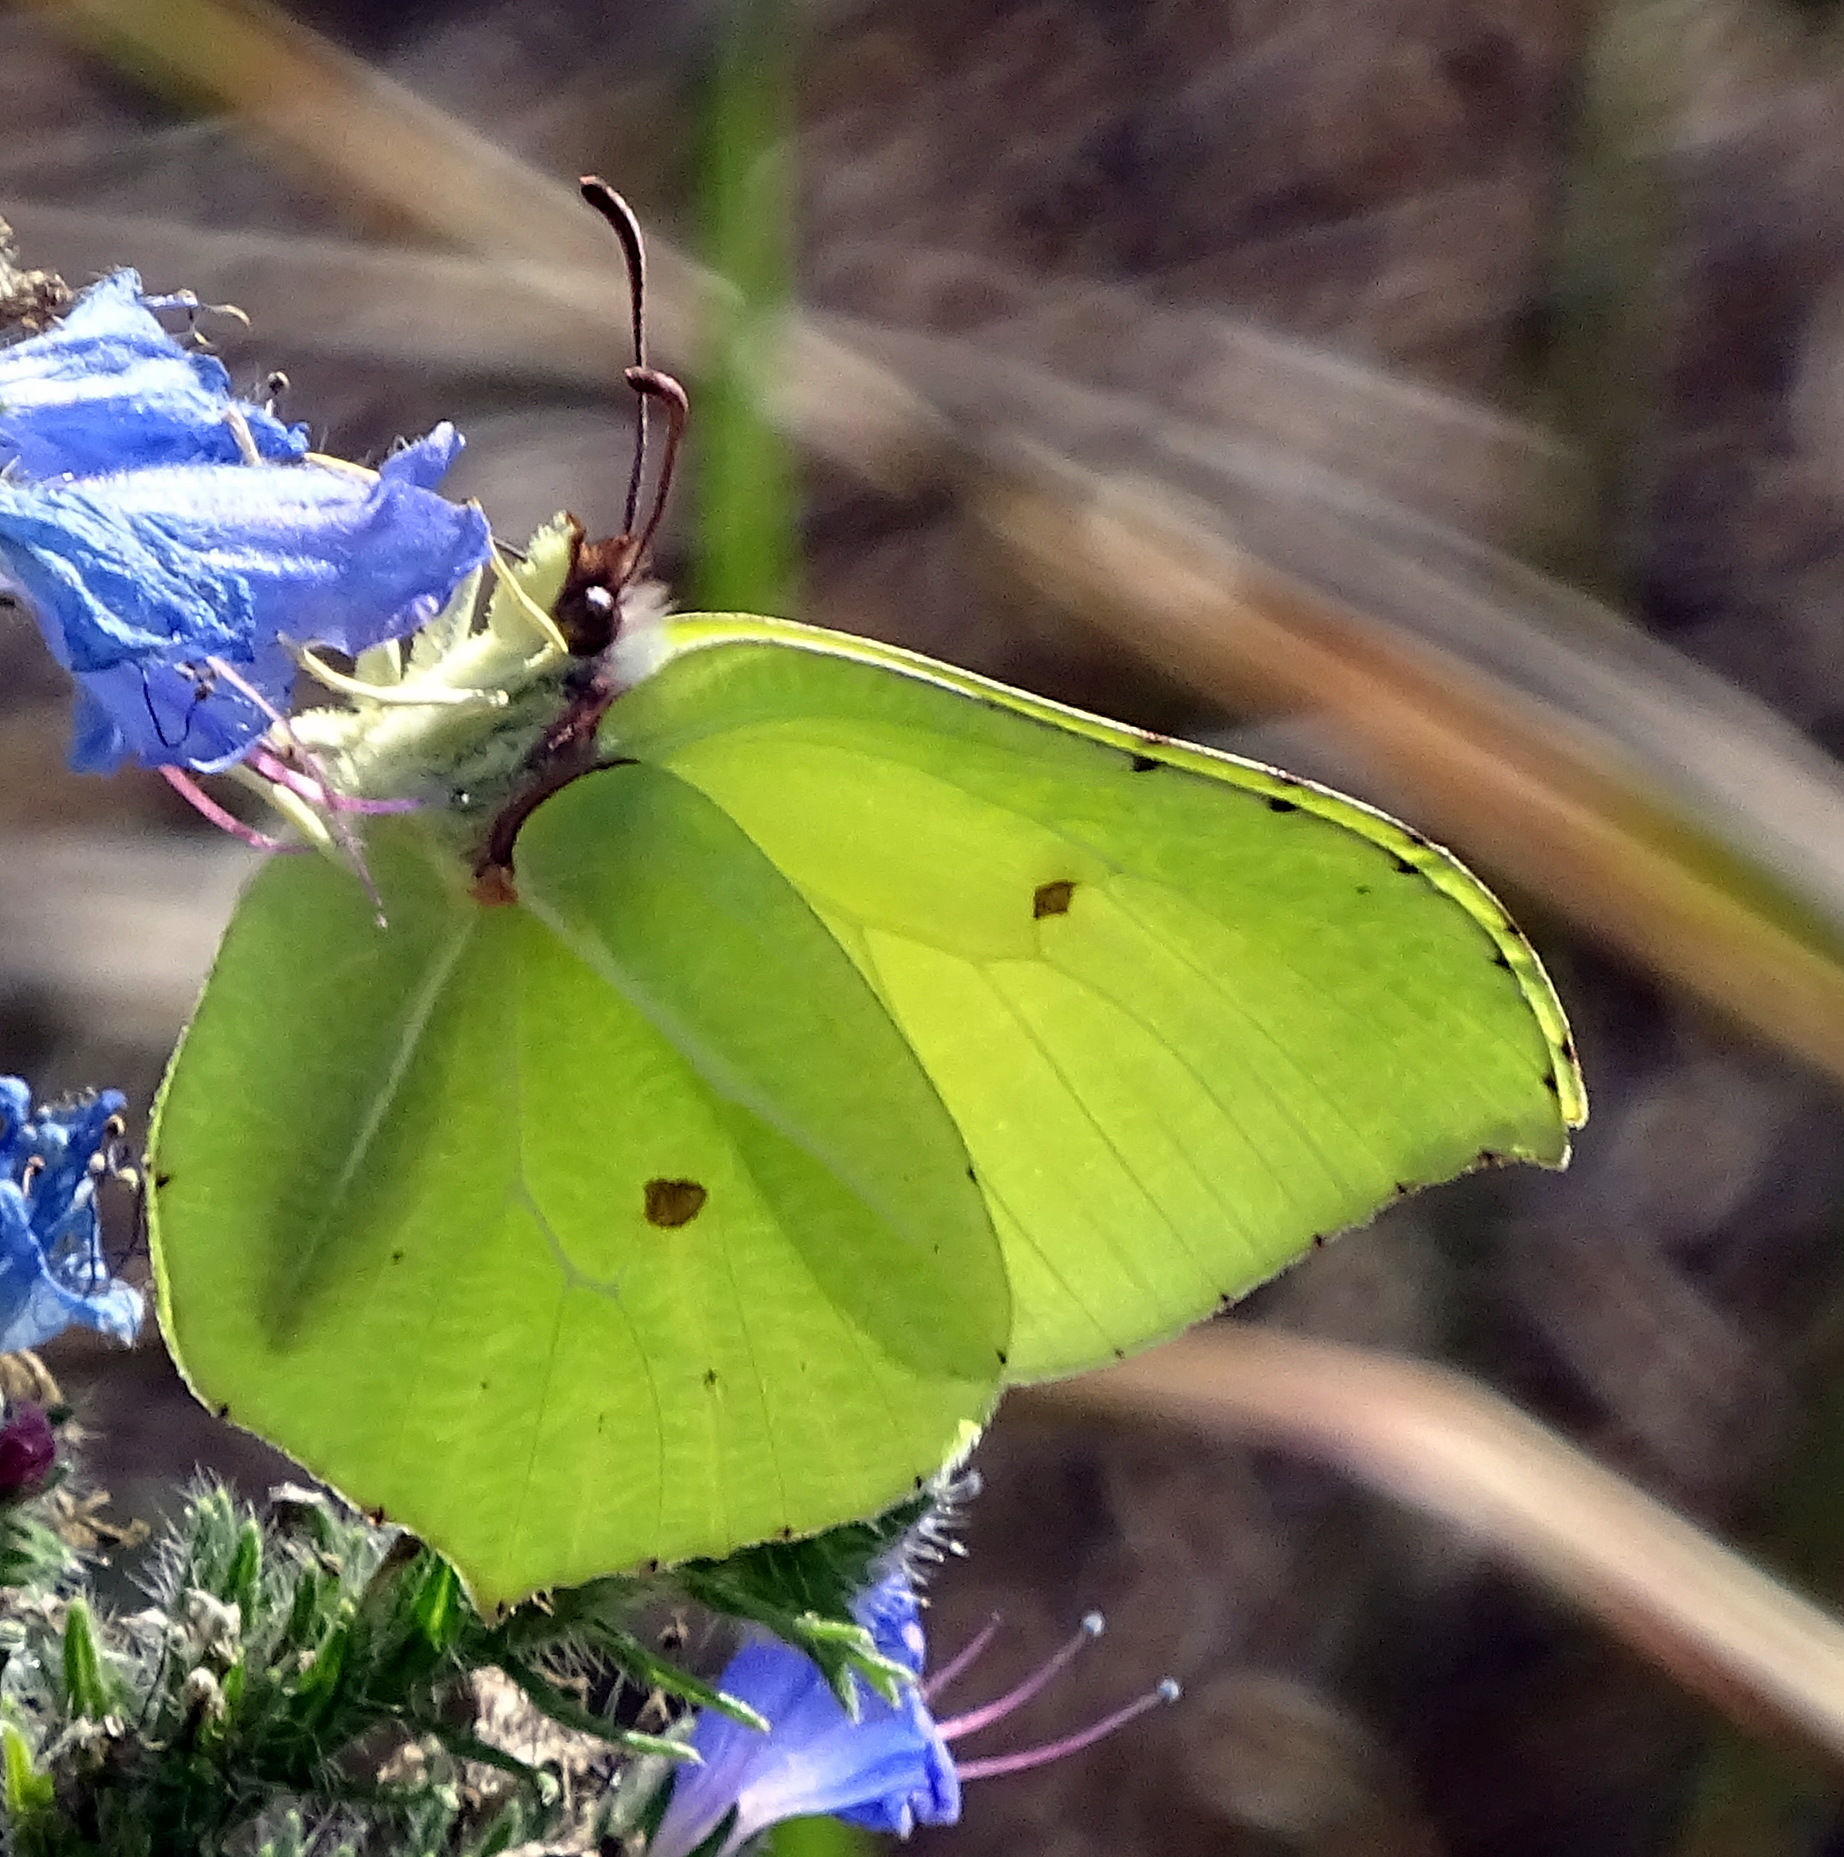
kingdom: Animalia
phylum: Arthropoda
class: Insecta
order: Lepidoptera
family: Pieridae
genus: Gonepteryx
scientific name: Gonepteryx rhamni
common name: Brimstone
